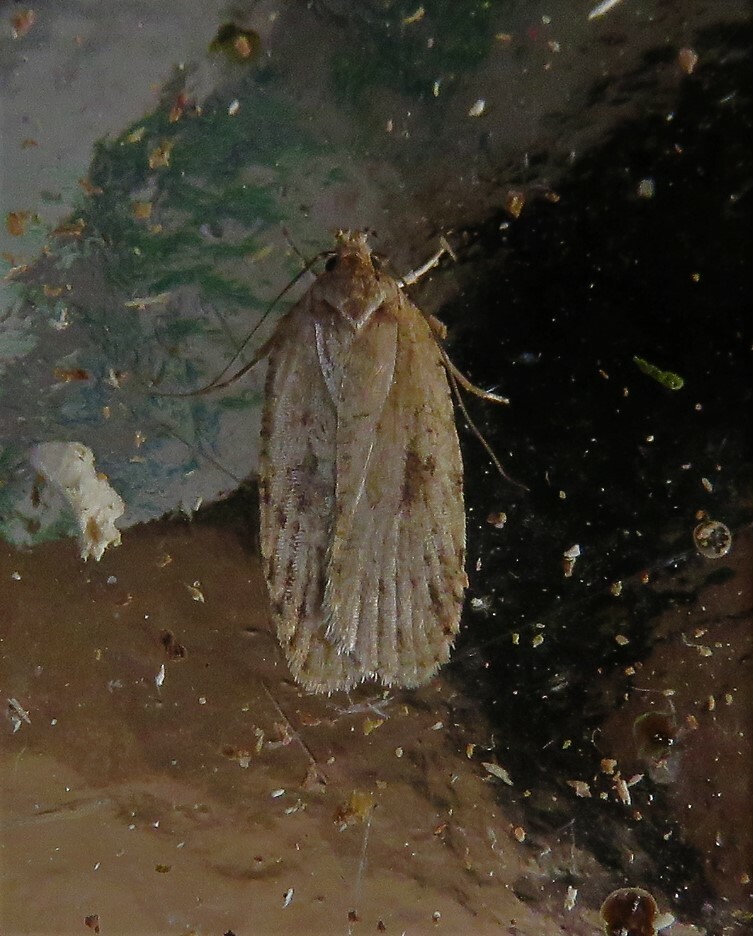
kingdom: Animalia
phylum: Arthropoda
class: Insecta
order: Lepidoptera
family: Depressariidae
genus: Agonopterix
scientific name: Agonopterix canadensis
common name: Canadian agonopterix moth
